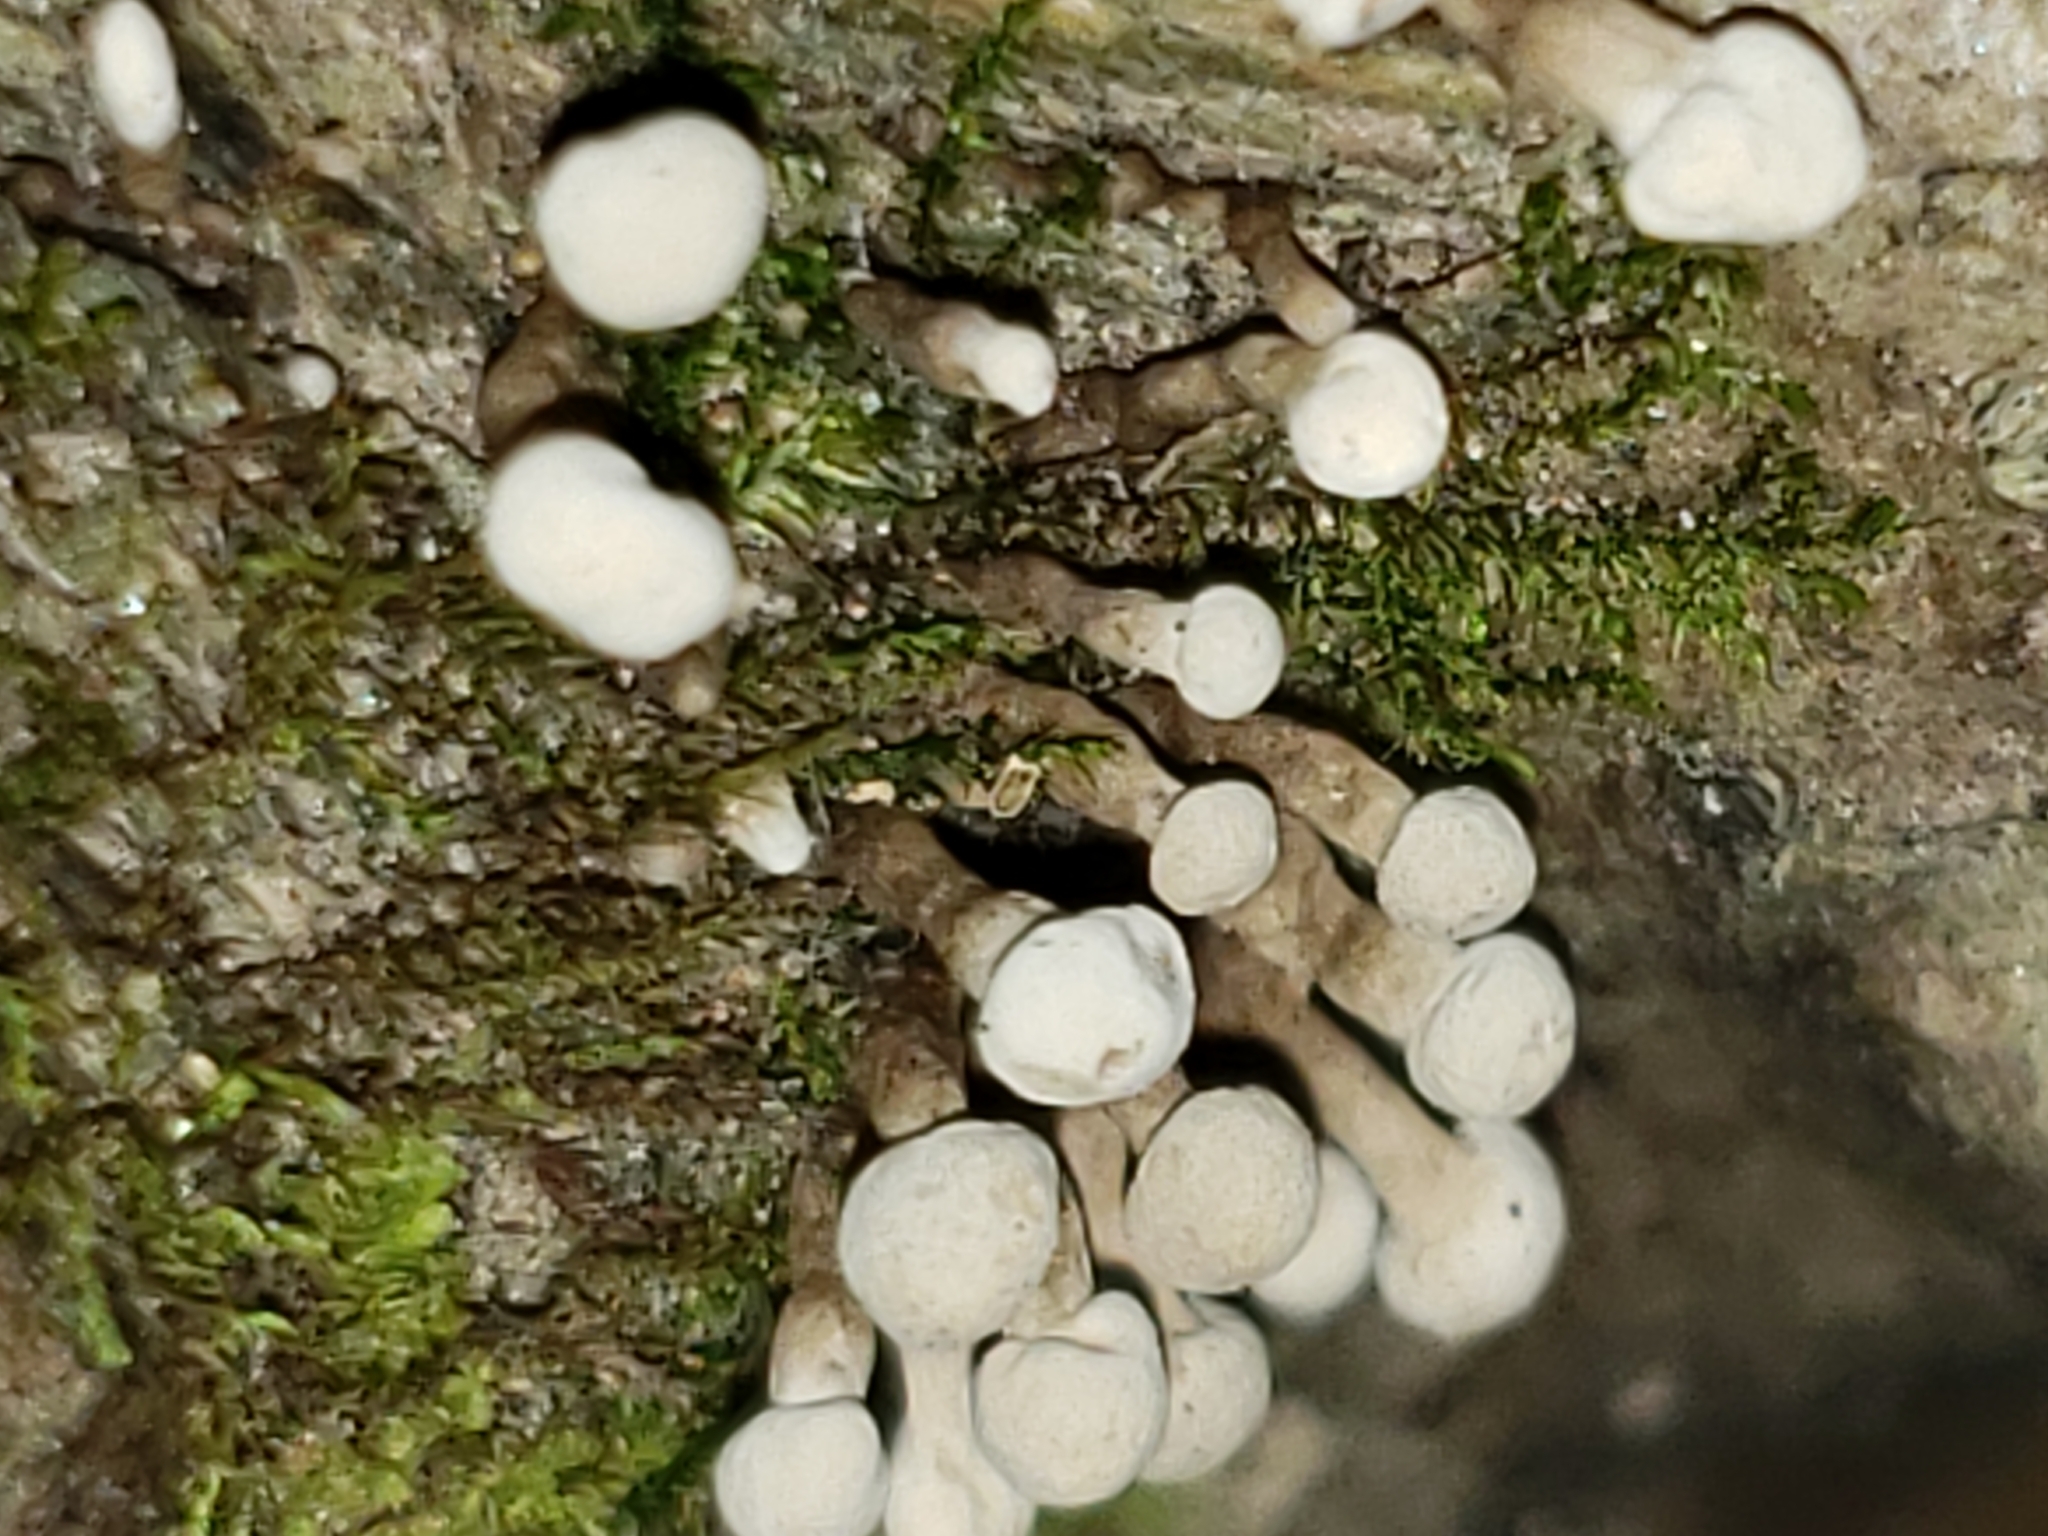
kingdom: Fungi
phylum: Basidiomycota
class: Atractiellomycetes
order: Atractiellales
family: Phleogenaceae
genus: Phleogena
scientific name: Phleogena faginea
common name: Fenugreek stalkball
